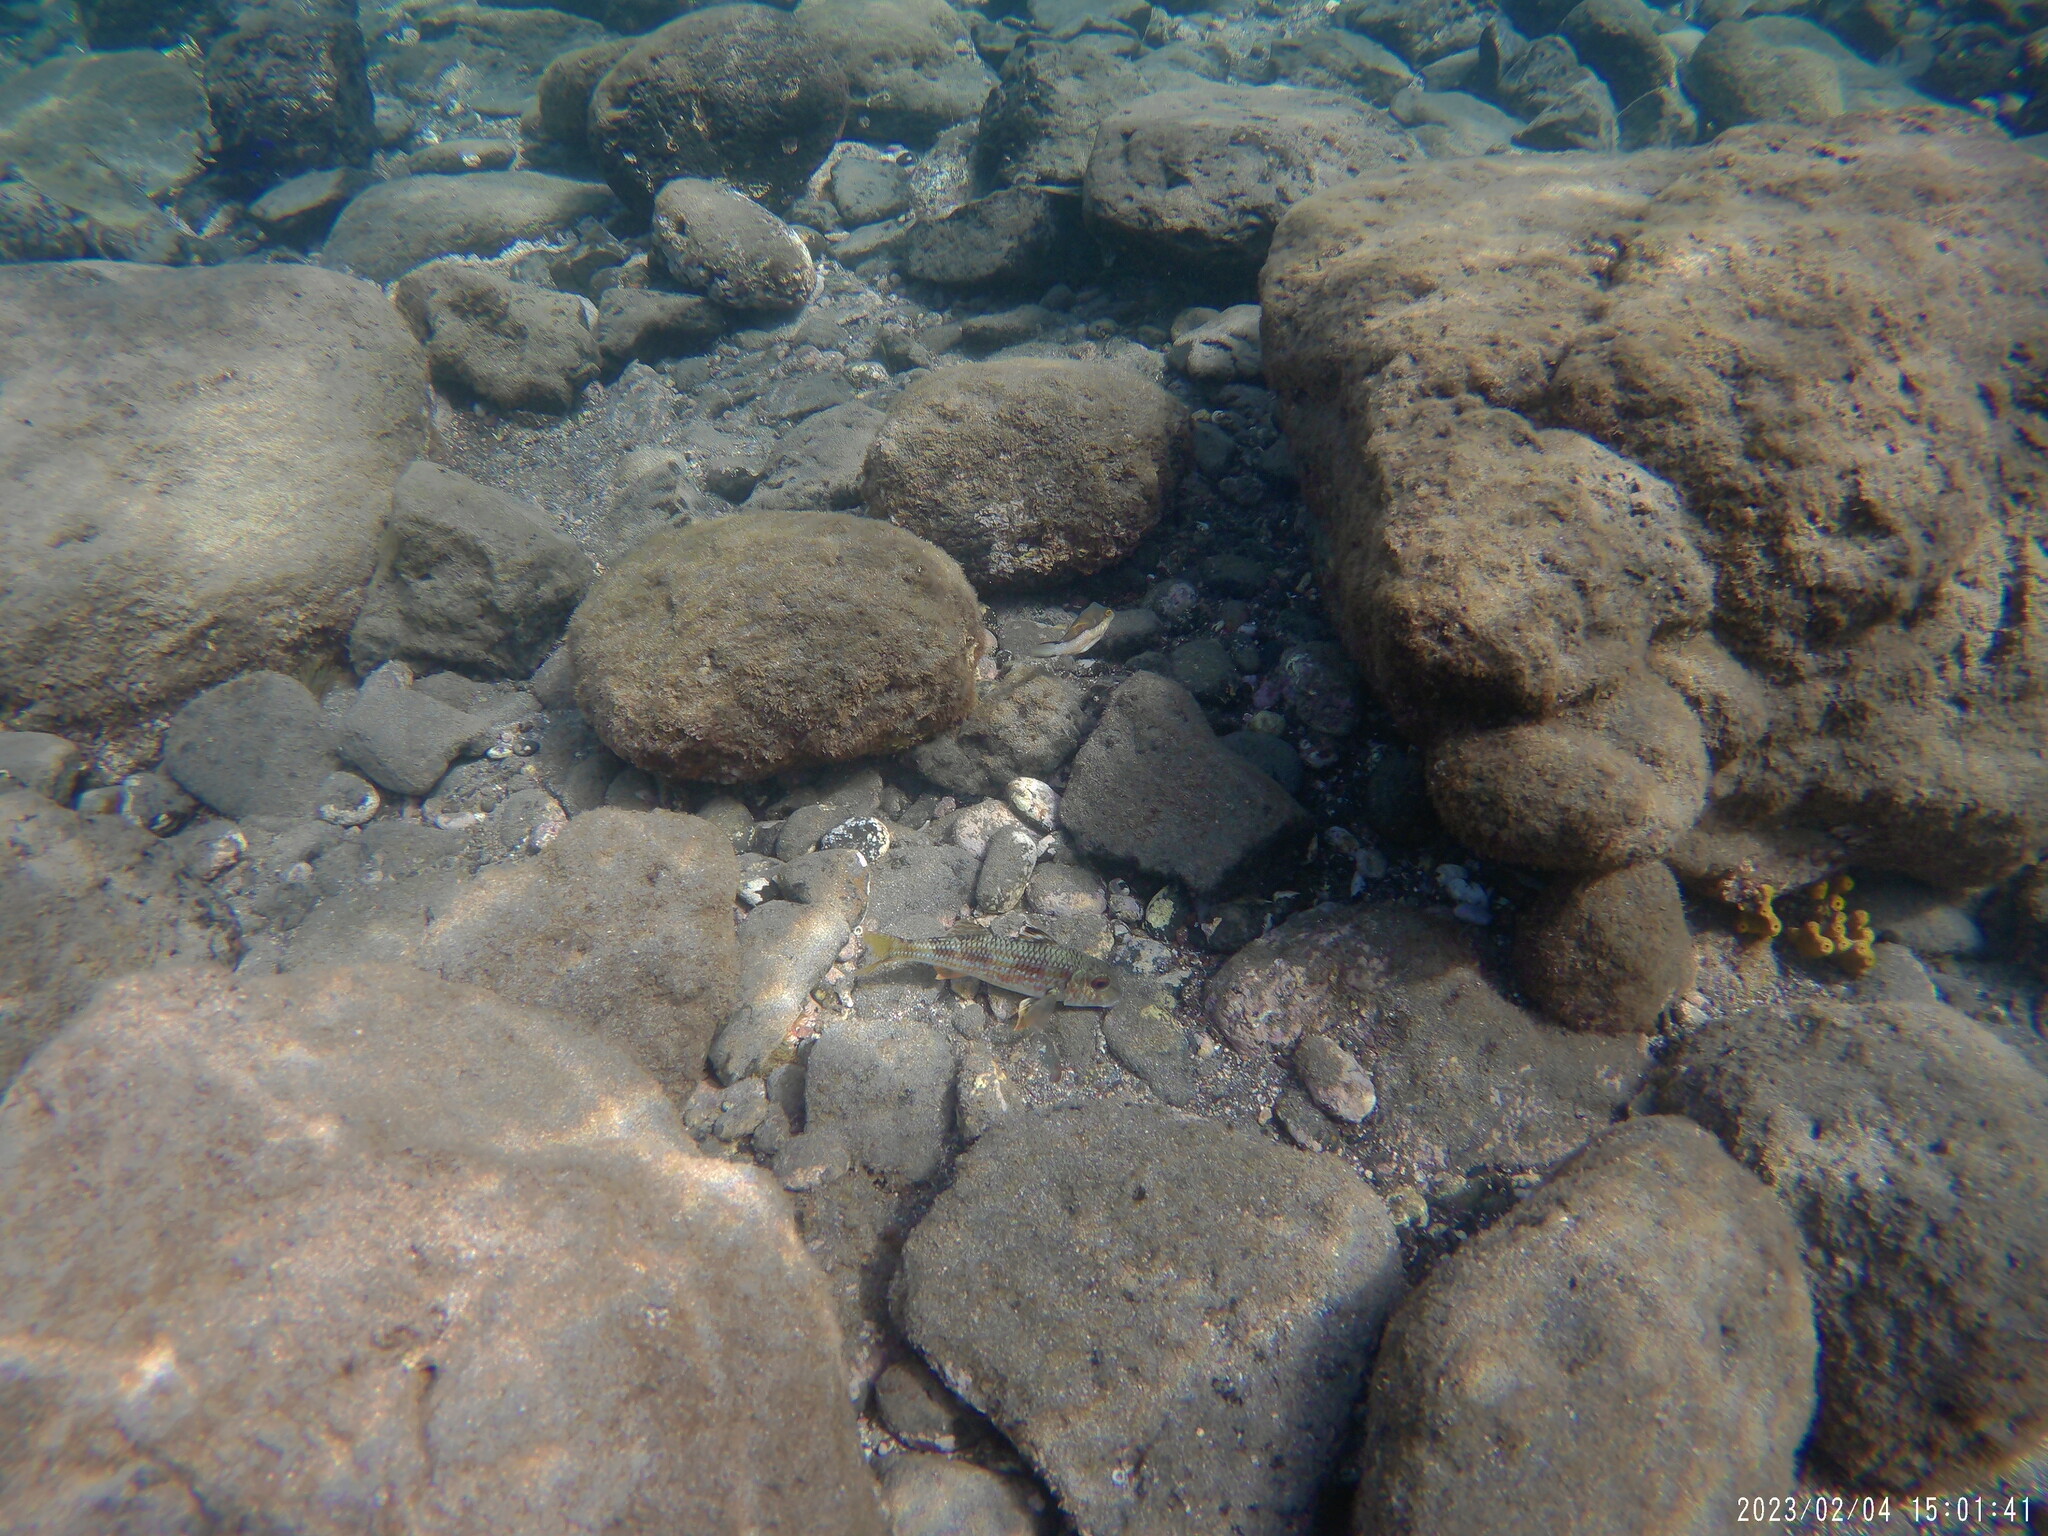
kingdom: Animalia
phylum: Chordata
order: Perciformes
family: Mullidae
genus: Mullus
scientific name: Mullus surmuletus
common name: Red mullet
